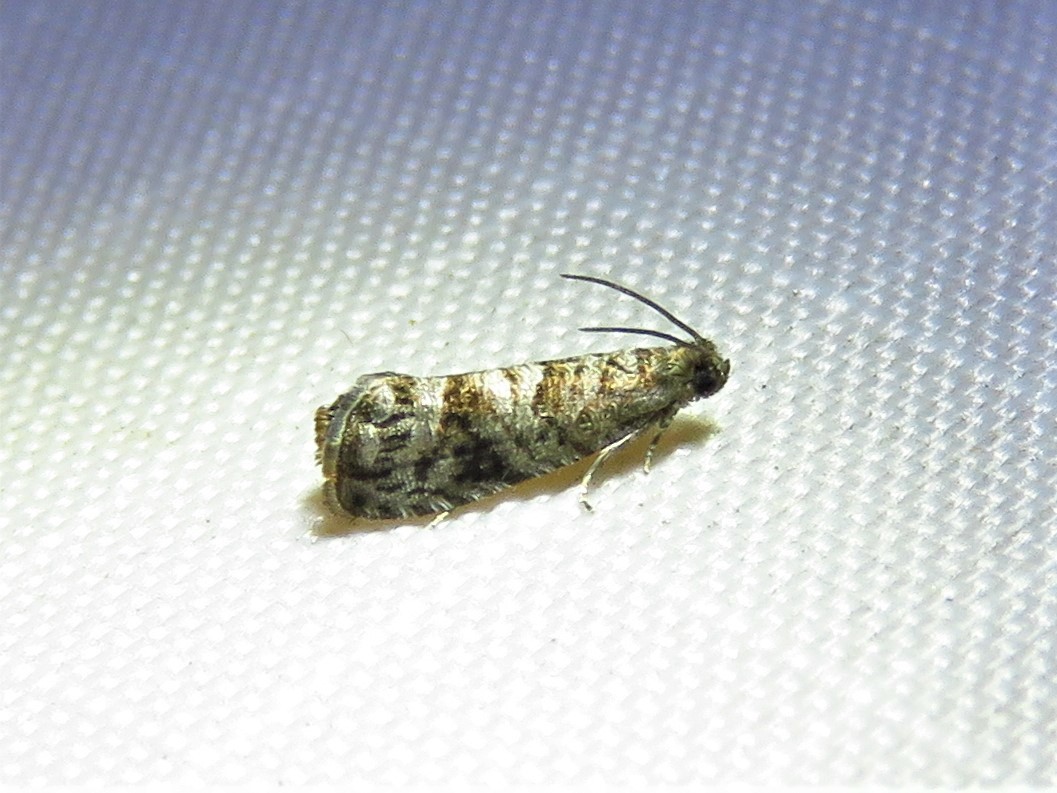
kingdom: Animalia
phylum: Arthropoda
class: Insecta
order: Lepidoptera
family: Noctuidae
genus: Aspila
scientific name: Aspila
